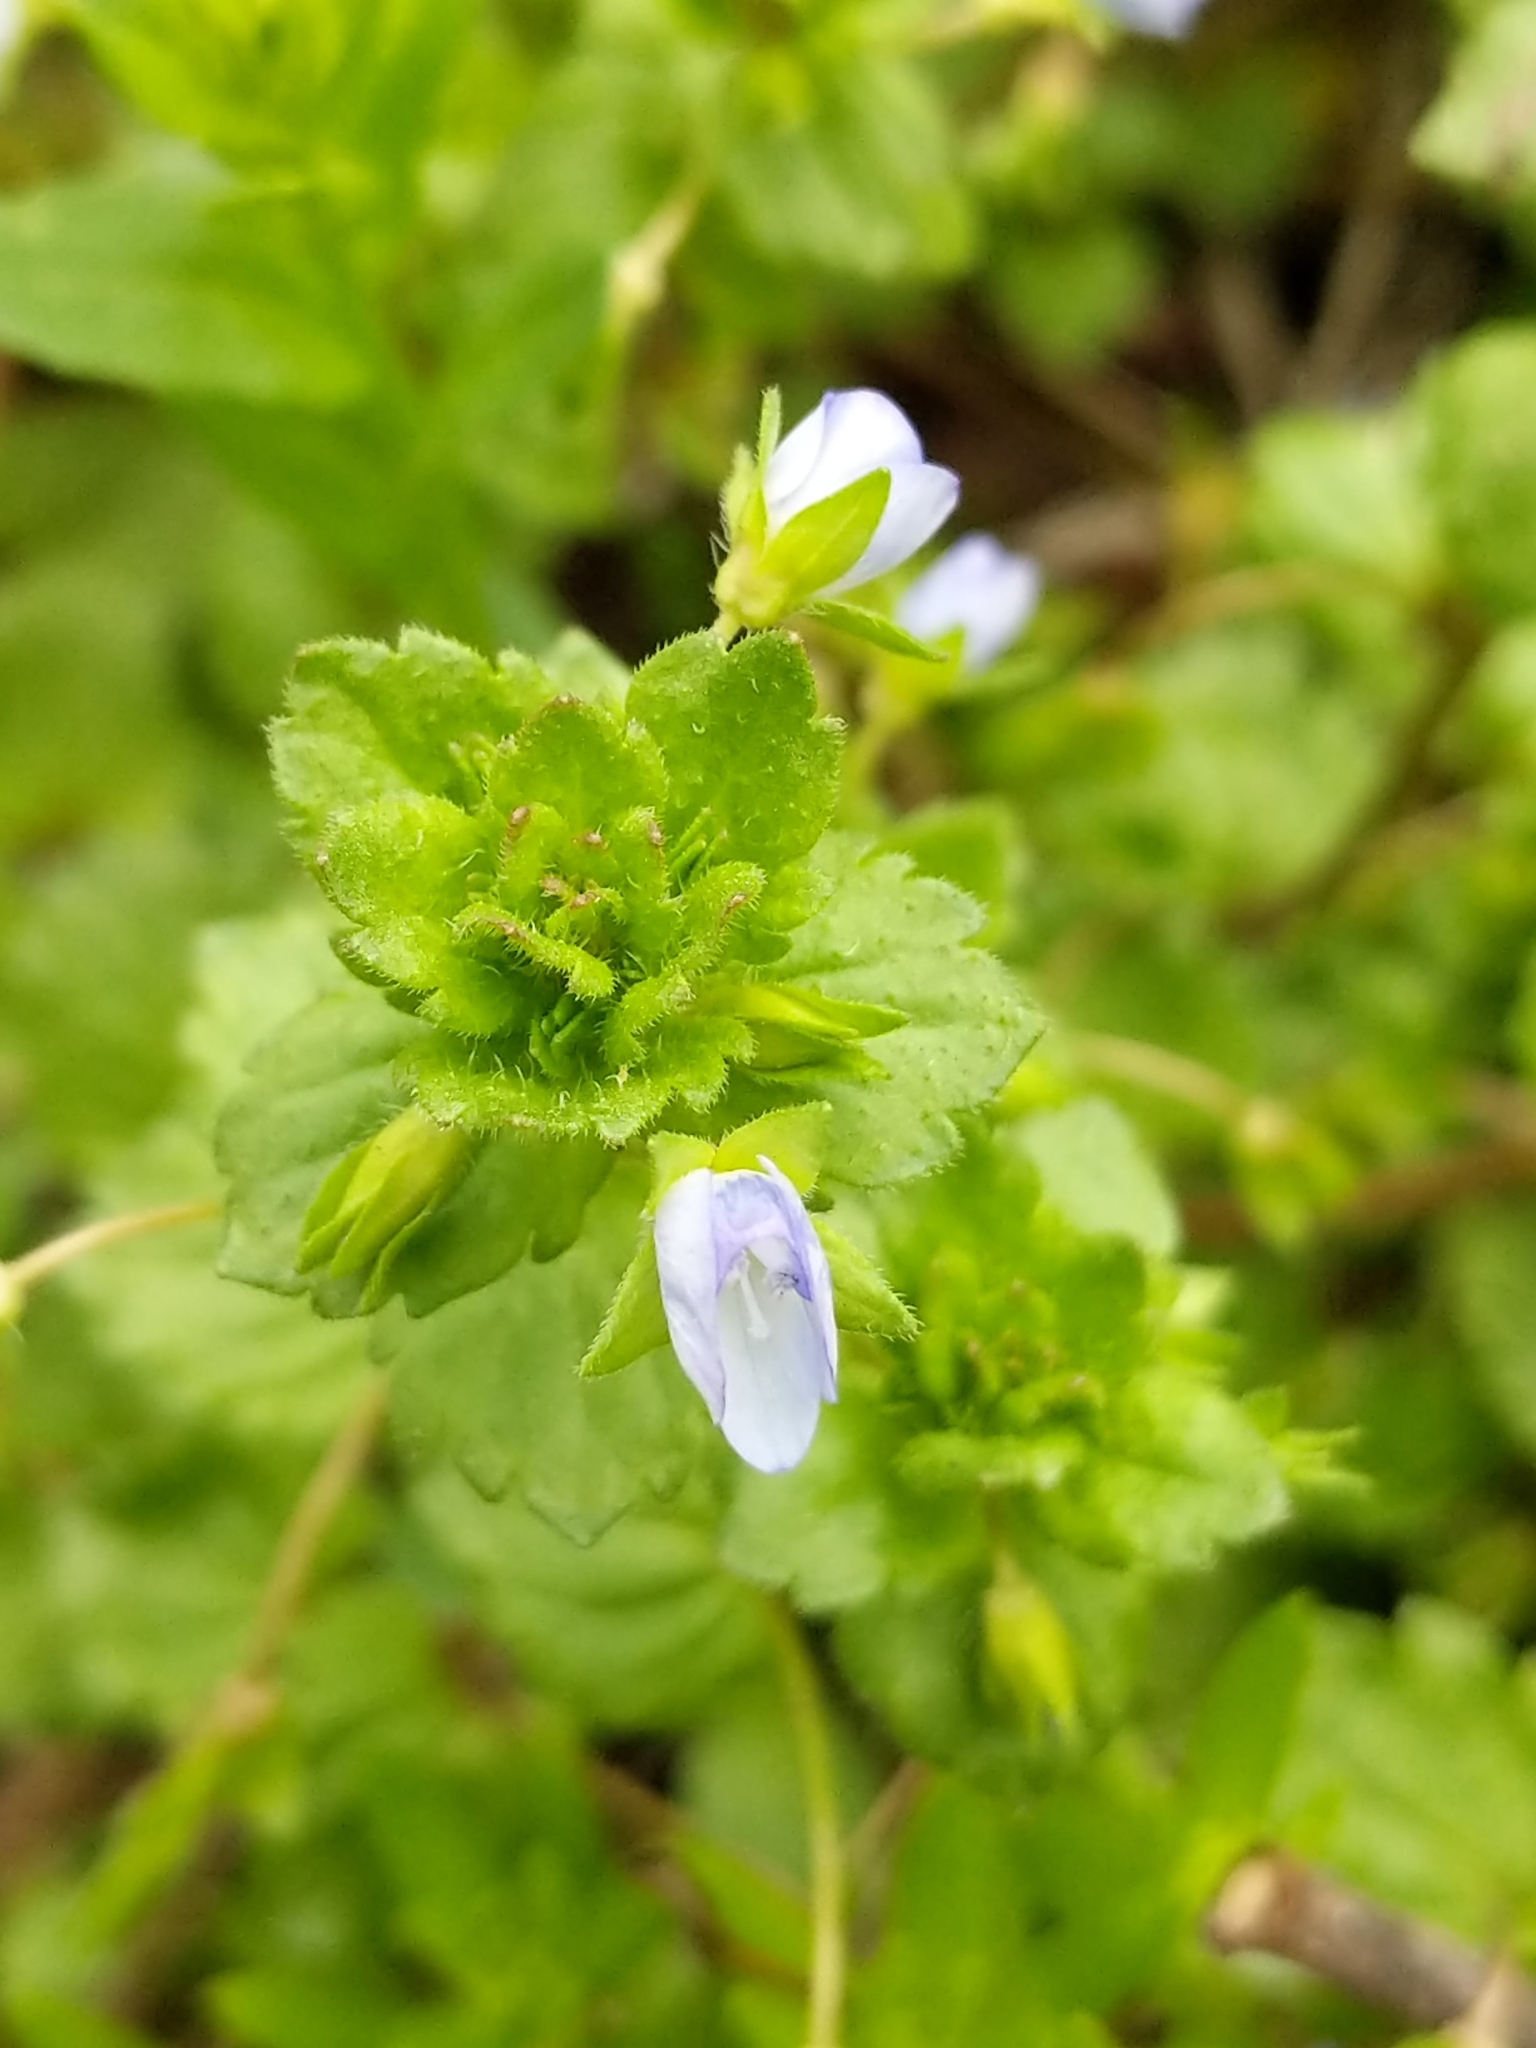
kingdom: Plantae
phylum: Tracheophyta
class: Magnoliopsida
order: Lamiales
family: Plantaginaceae
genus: Veronica
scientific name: Veronica persica
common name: Common field-speedwell
